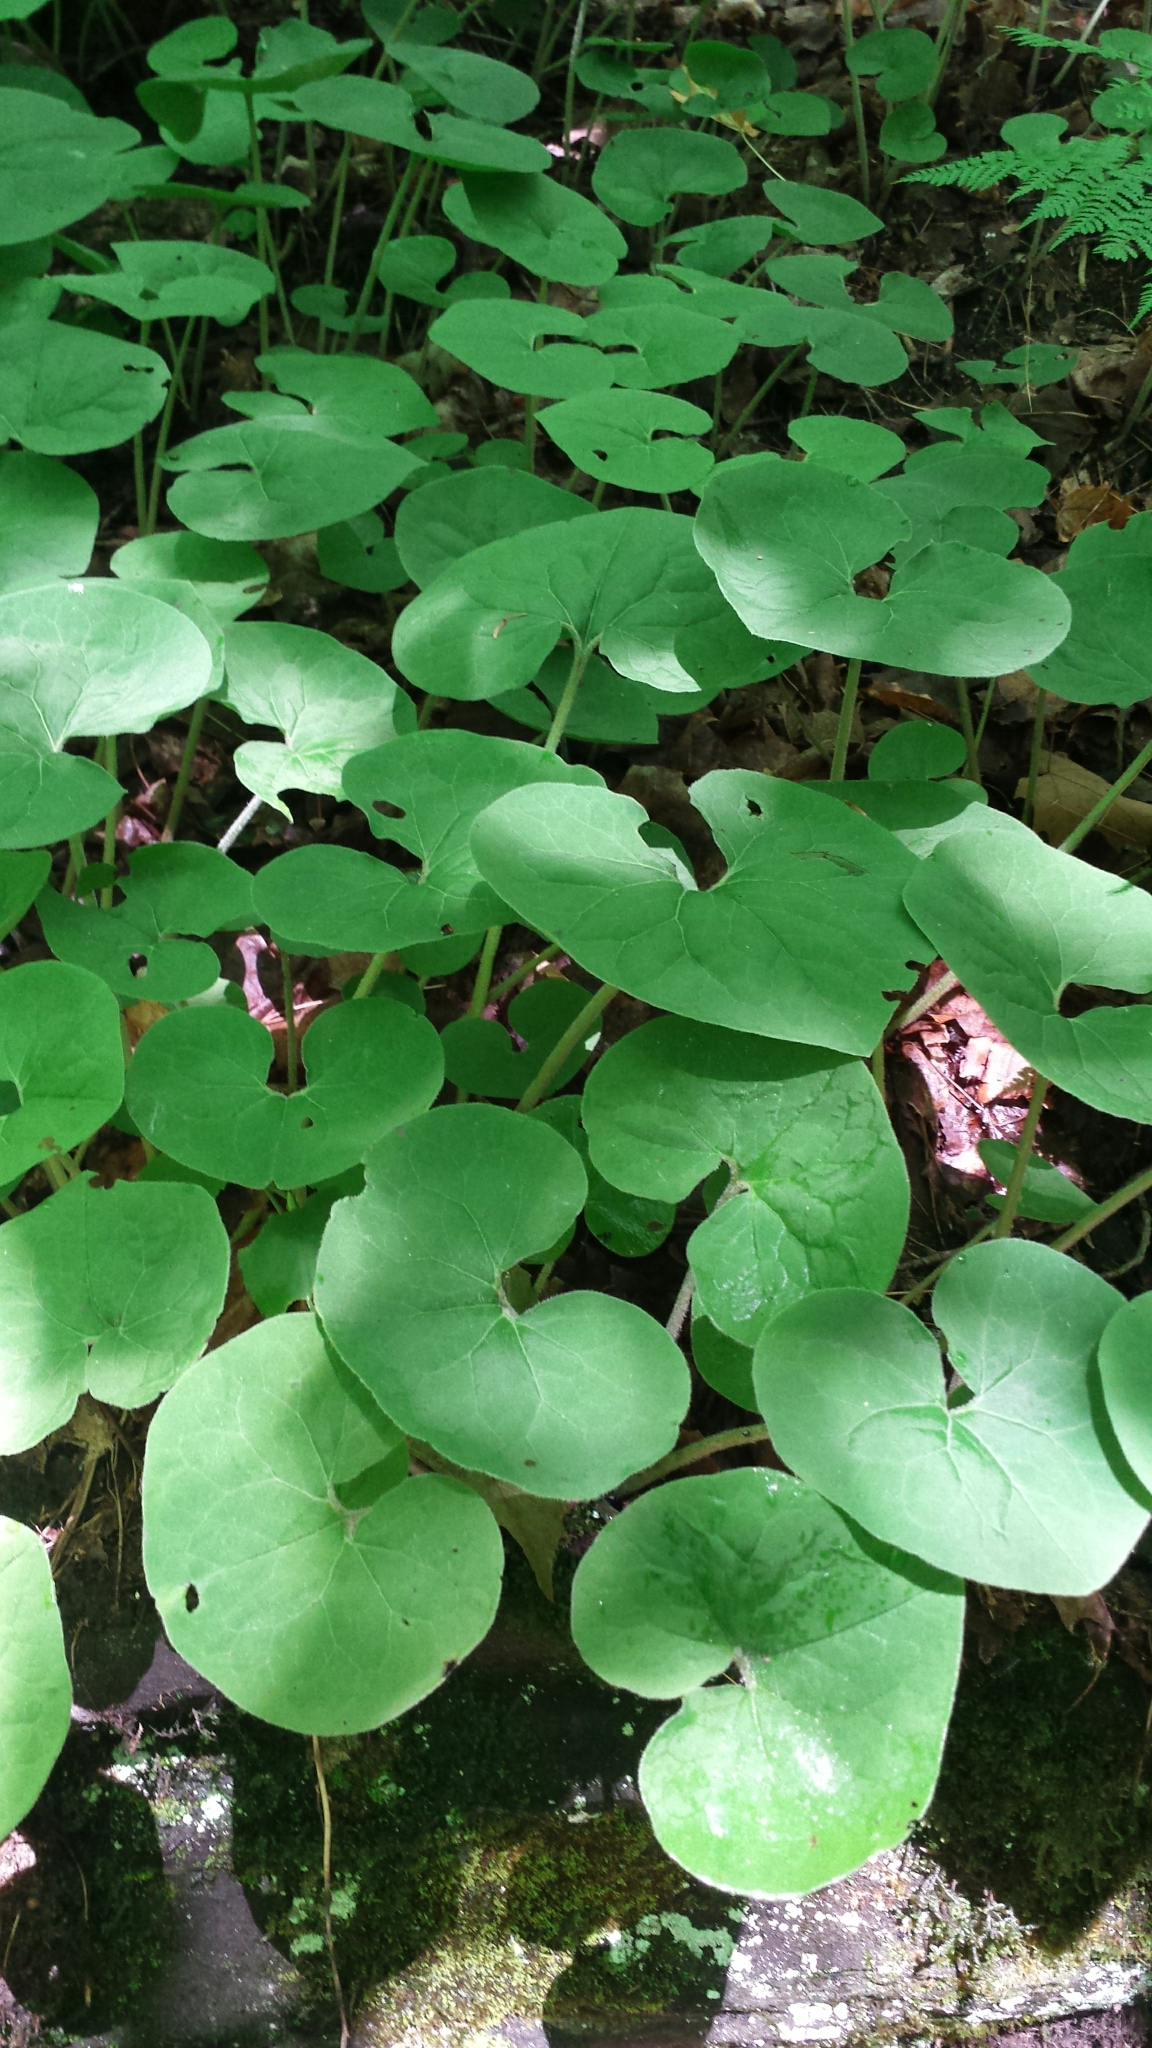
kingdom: Plantae
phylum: Tracheophyta
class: Magnoliopsida
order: Piperales
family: Aristolochiaceae
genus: Asarum
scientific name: Asarum canadense
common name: Wild ginger
